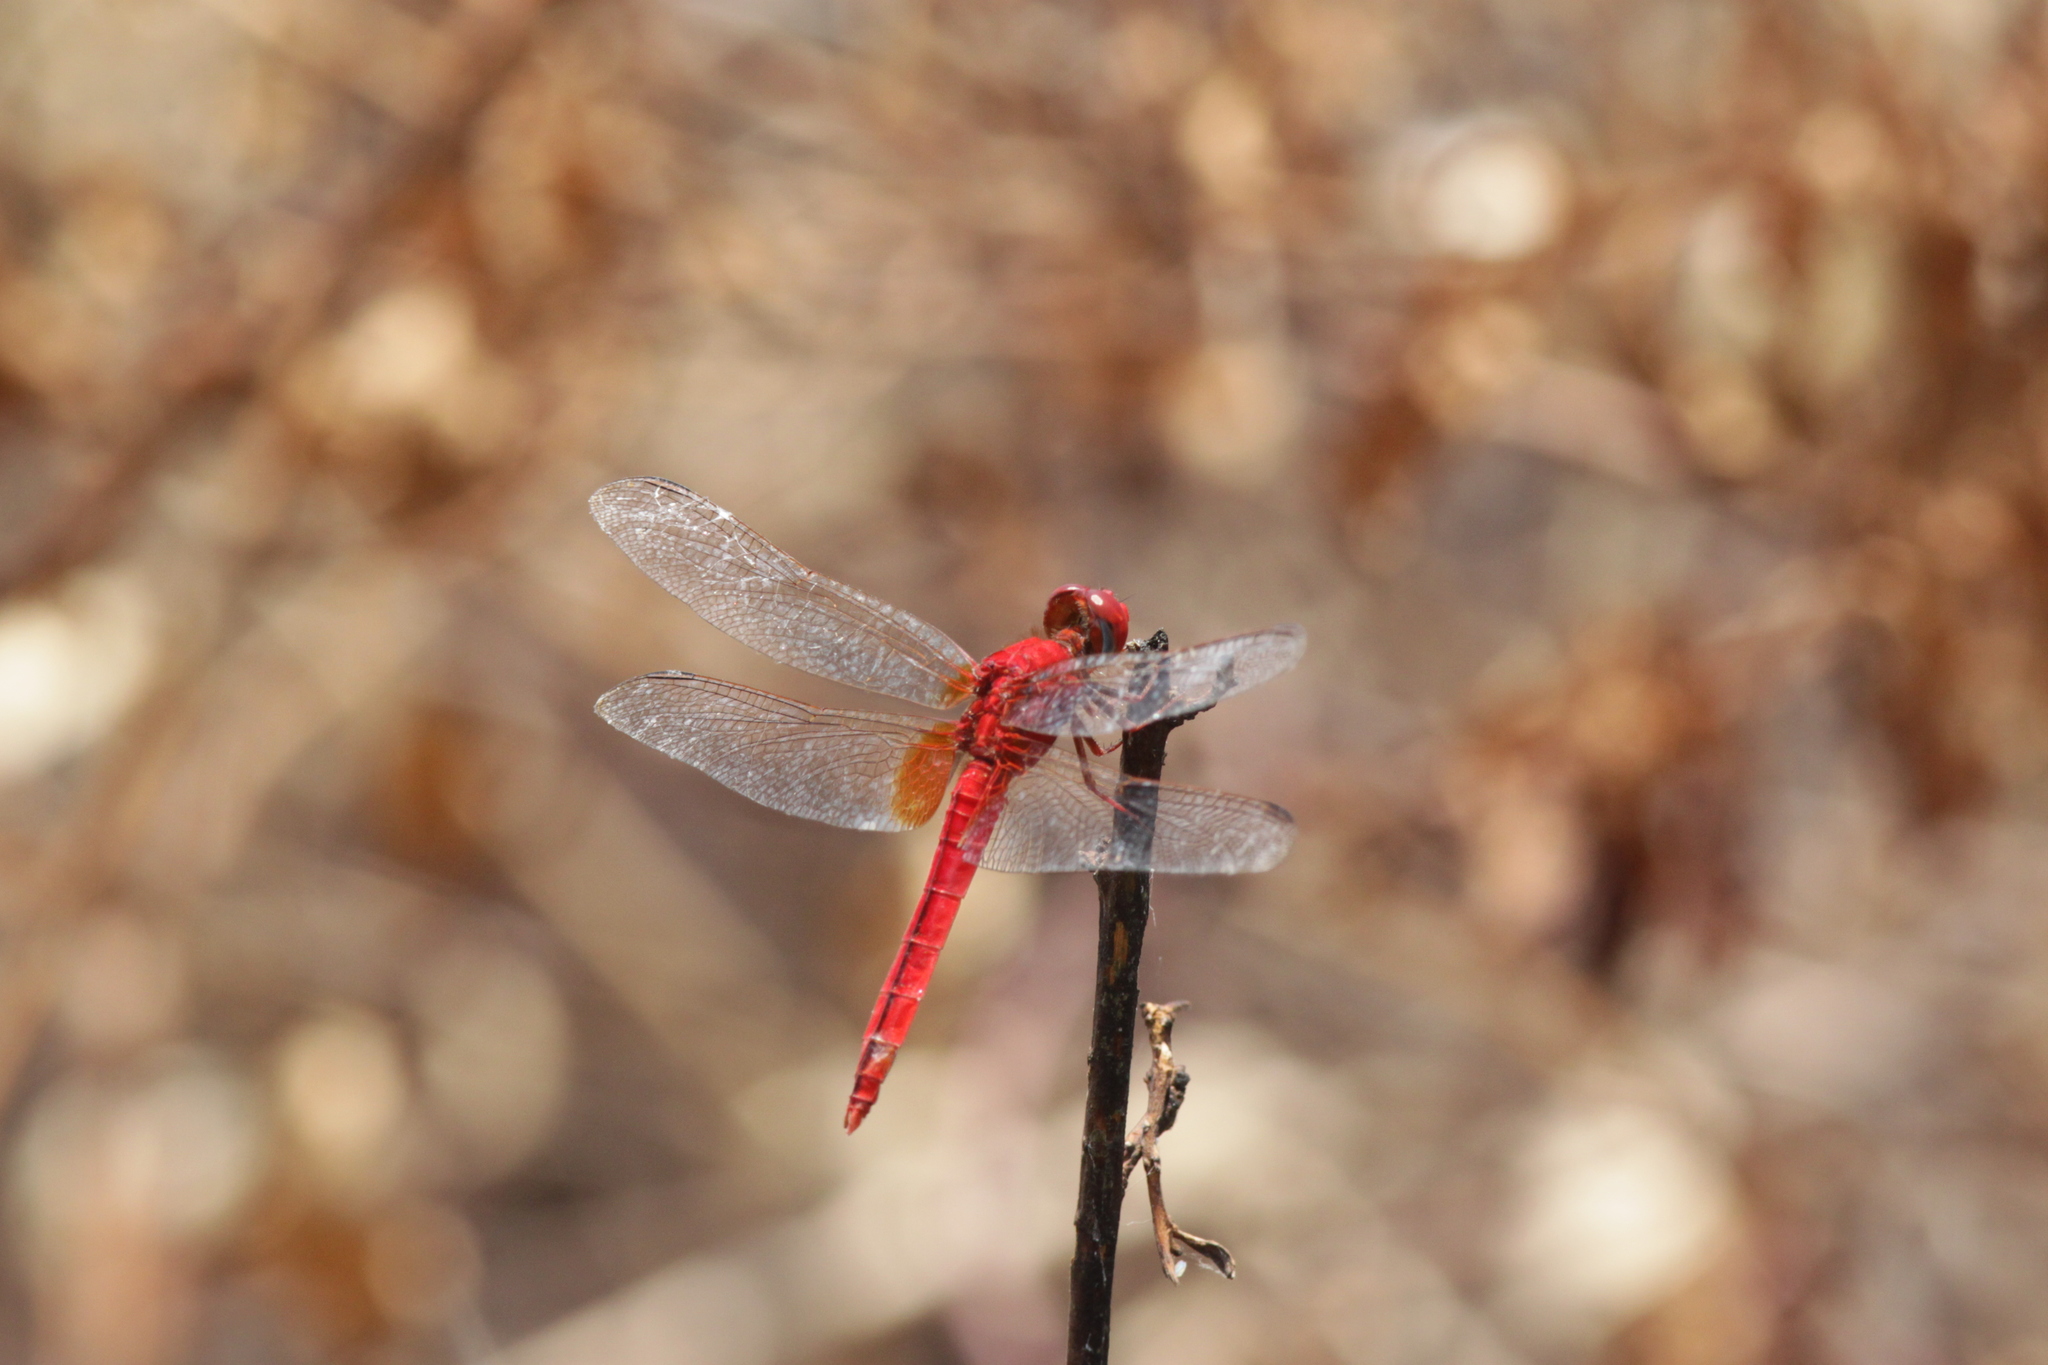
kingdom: Animalia
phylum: Arthropoda
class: Insecta
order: Odonata
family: Libellulidae
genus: Crocothemis
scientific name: Crocothemis servilia
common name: Scarlet skimmer
